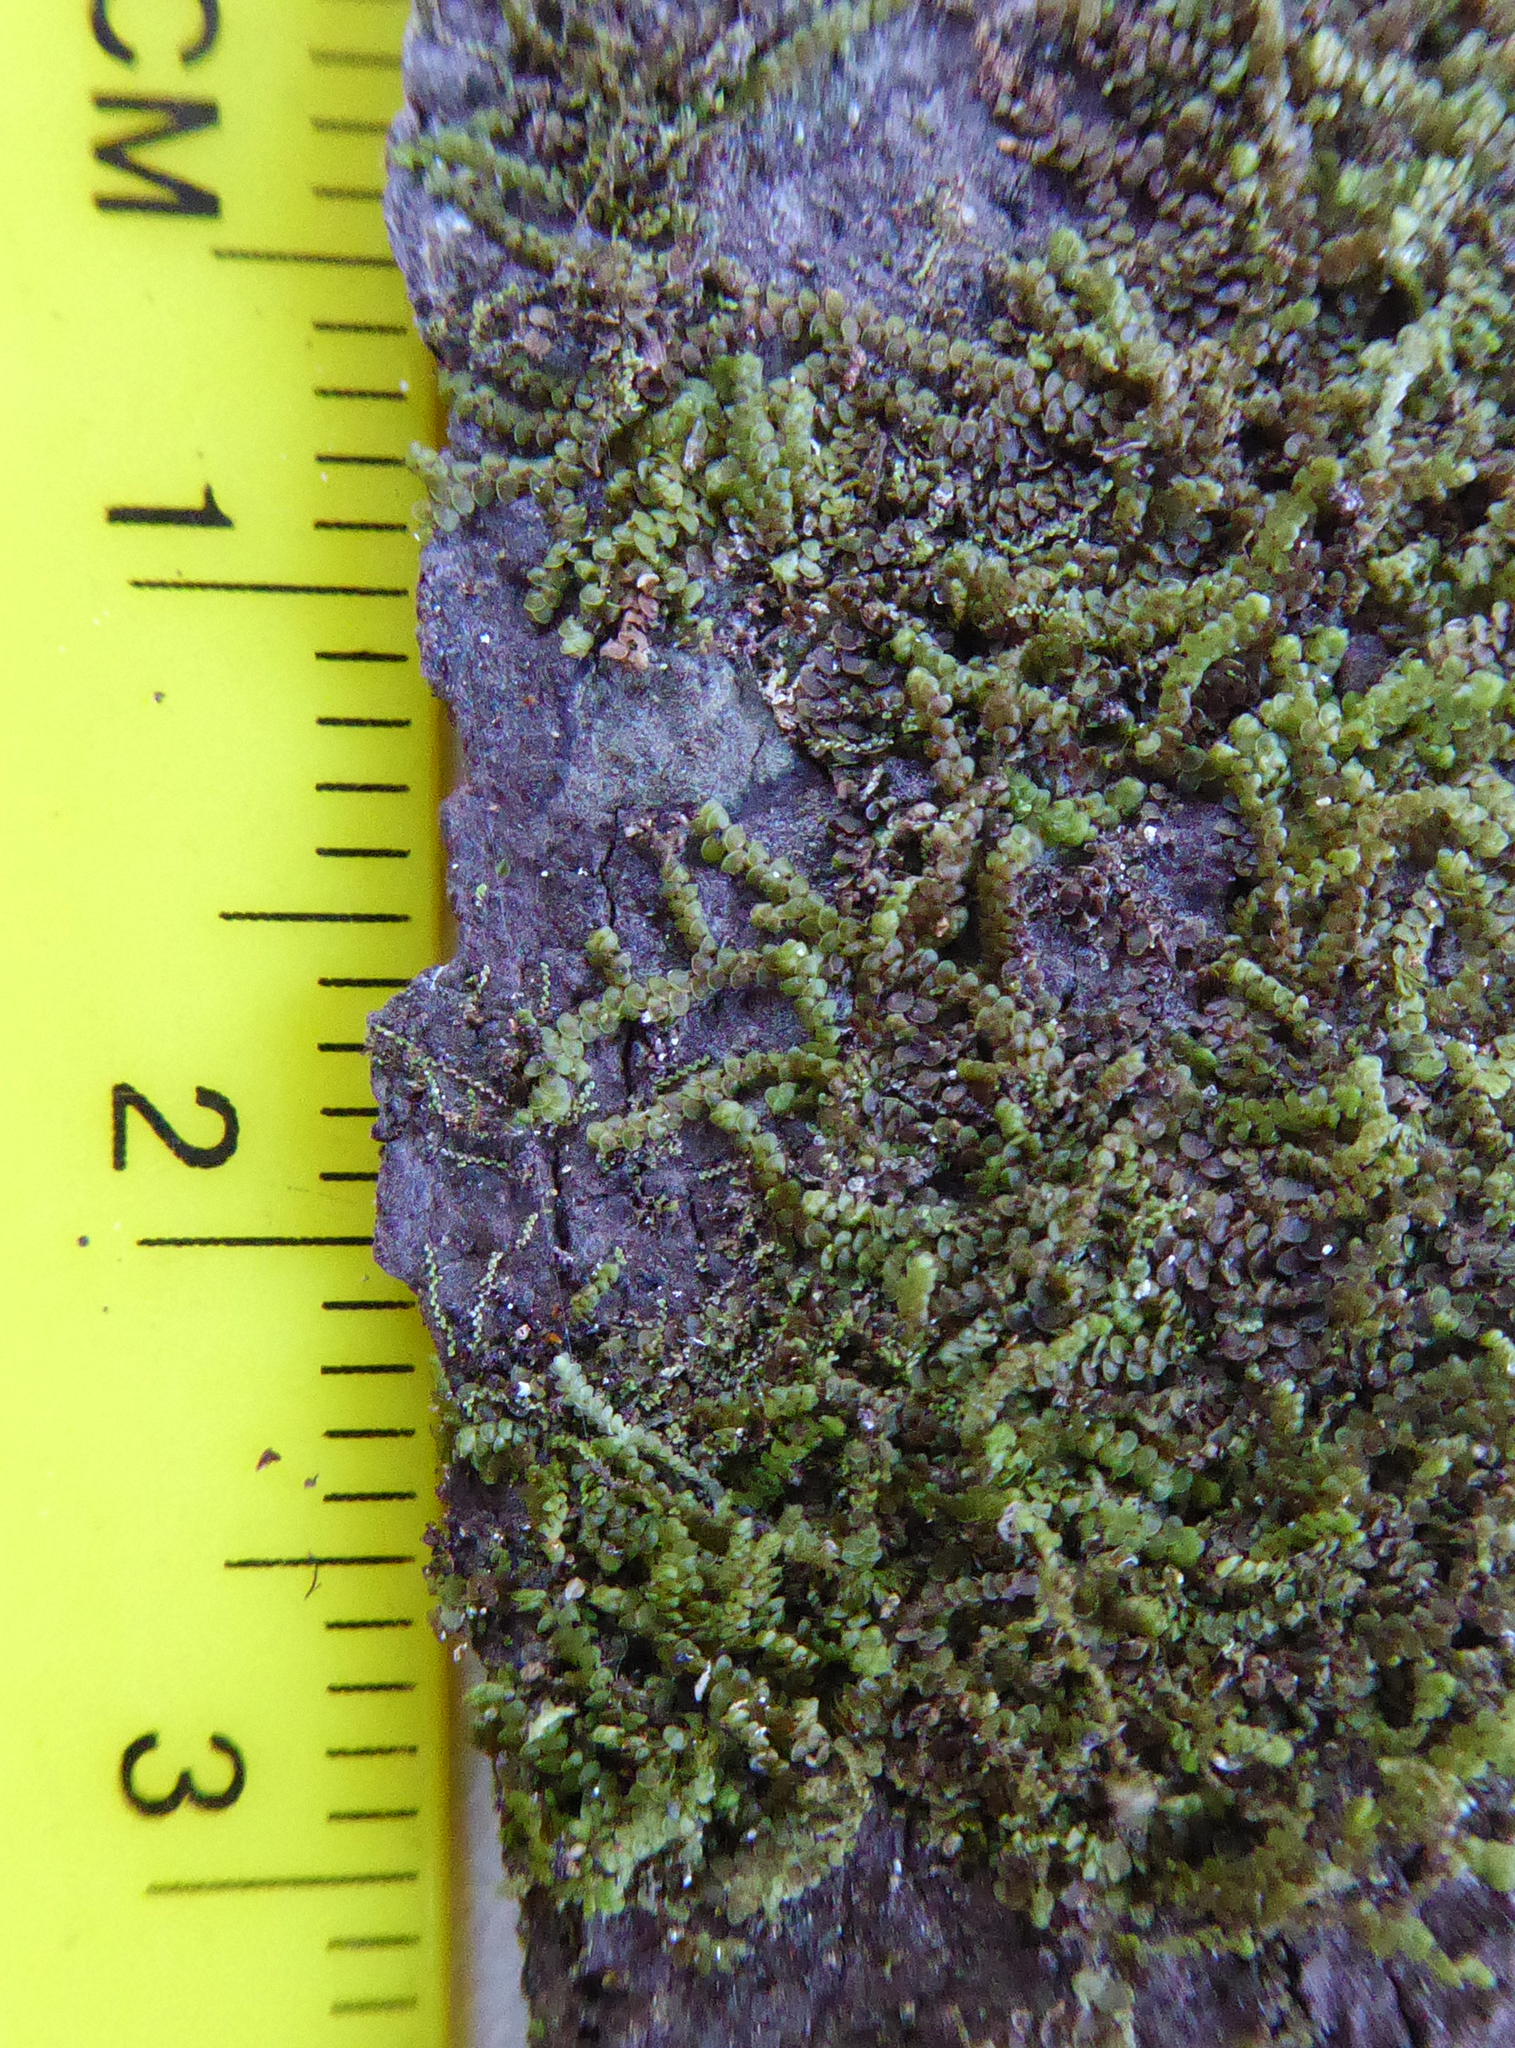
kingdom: Plantae
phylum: Marchantiophyta
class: Jungermanniopsida
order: Porellales
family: Frullaniaceae
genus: Frullania
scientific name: Frullania deplanata
